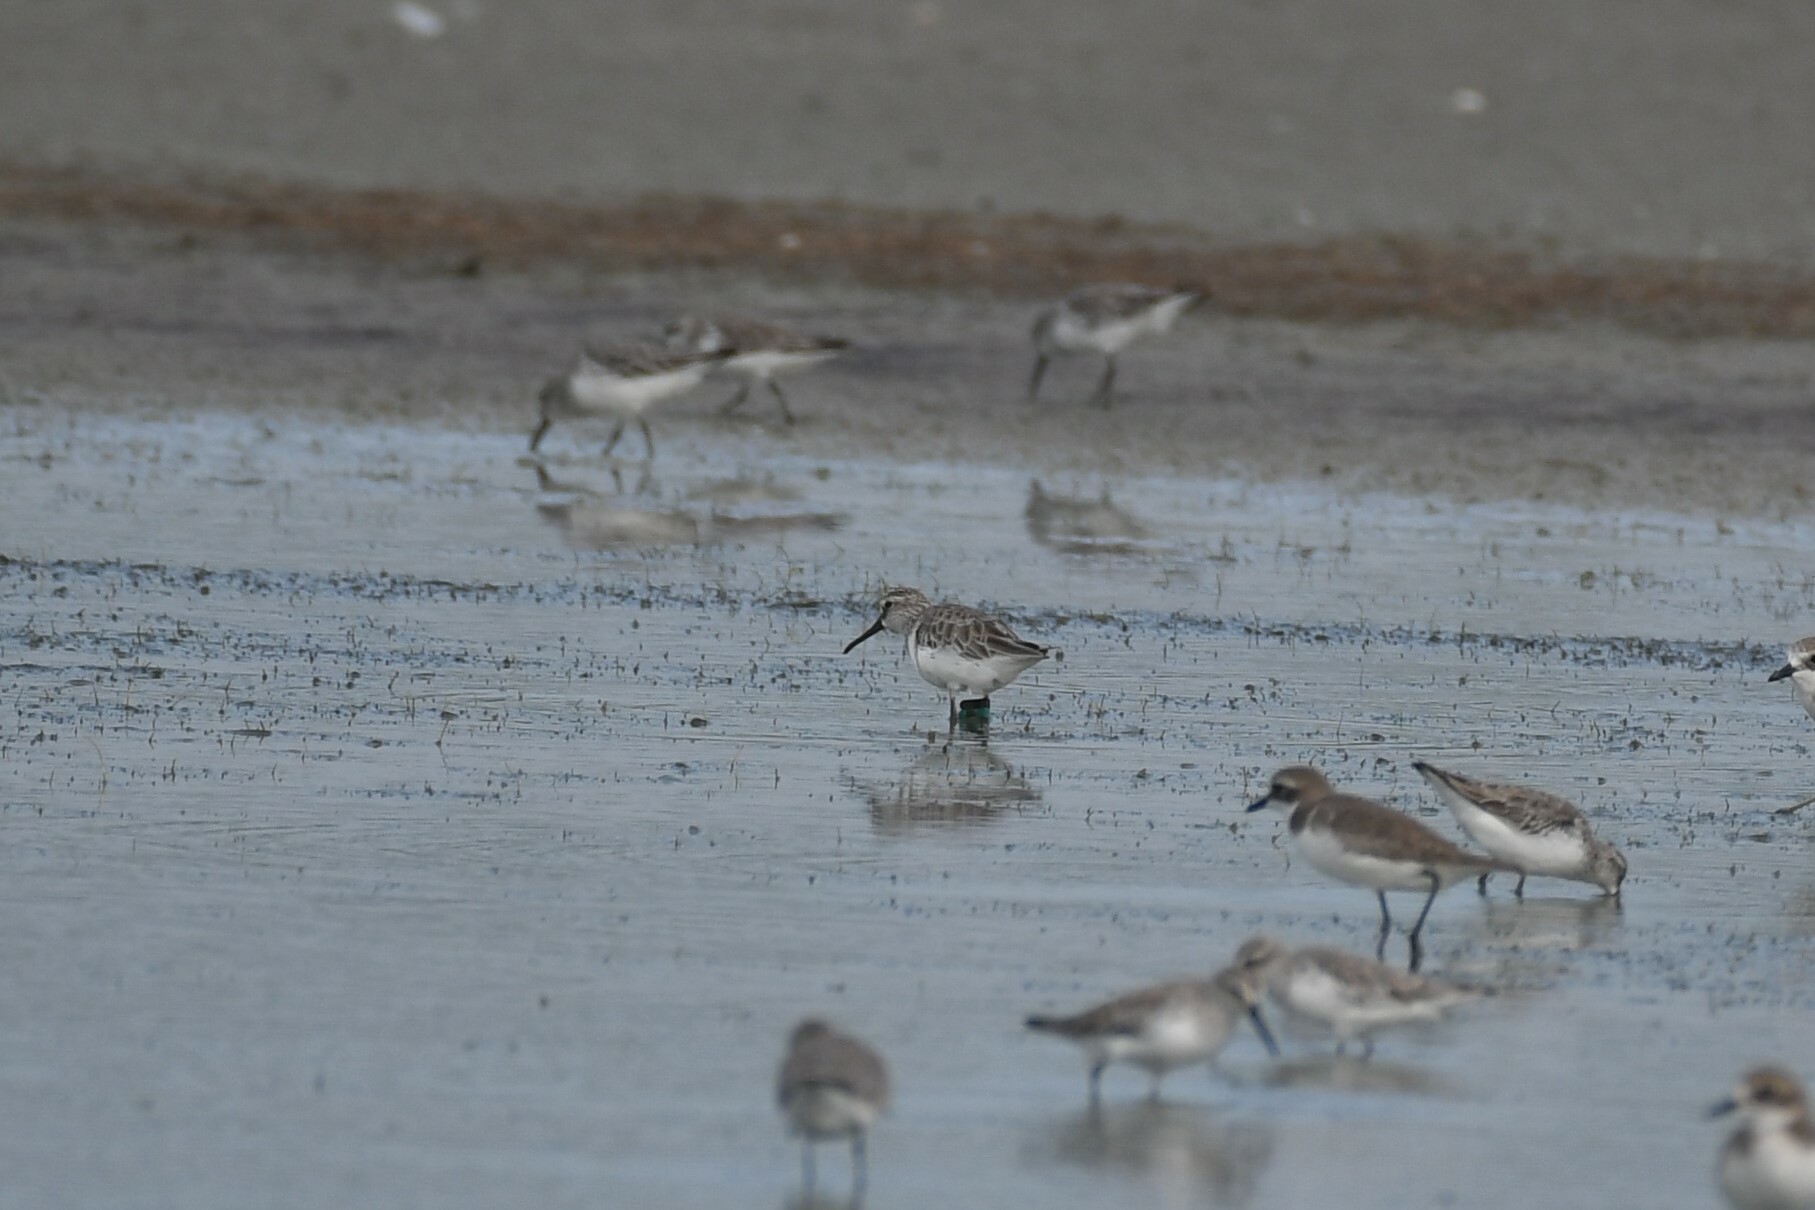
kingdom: Animalia
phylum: Chordata
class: Aves
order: Charadriiformes
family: Scolopacidae
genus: Calidris
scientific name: Calidris falcinellus
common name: Broad-billed sandpiper
